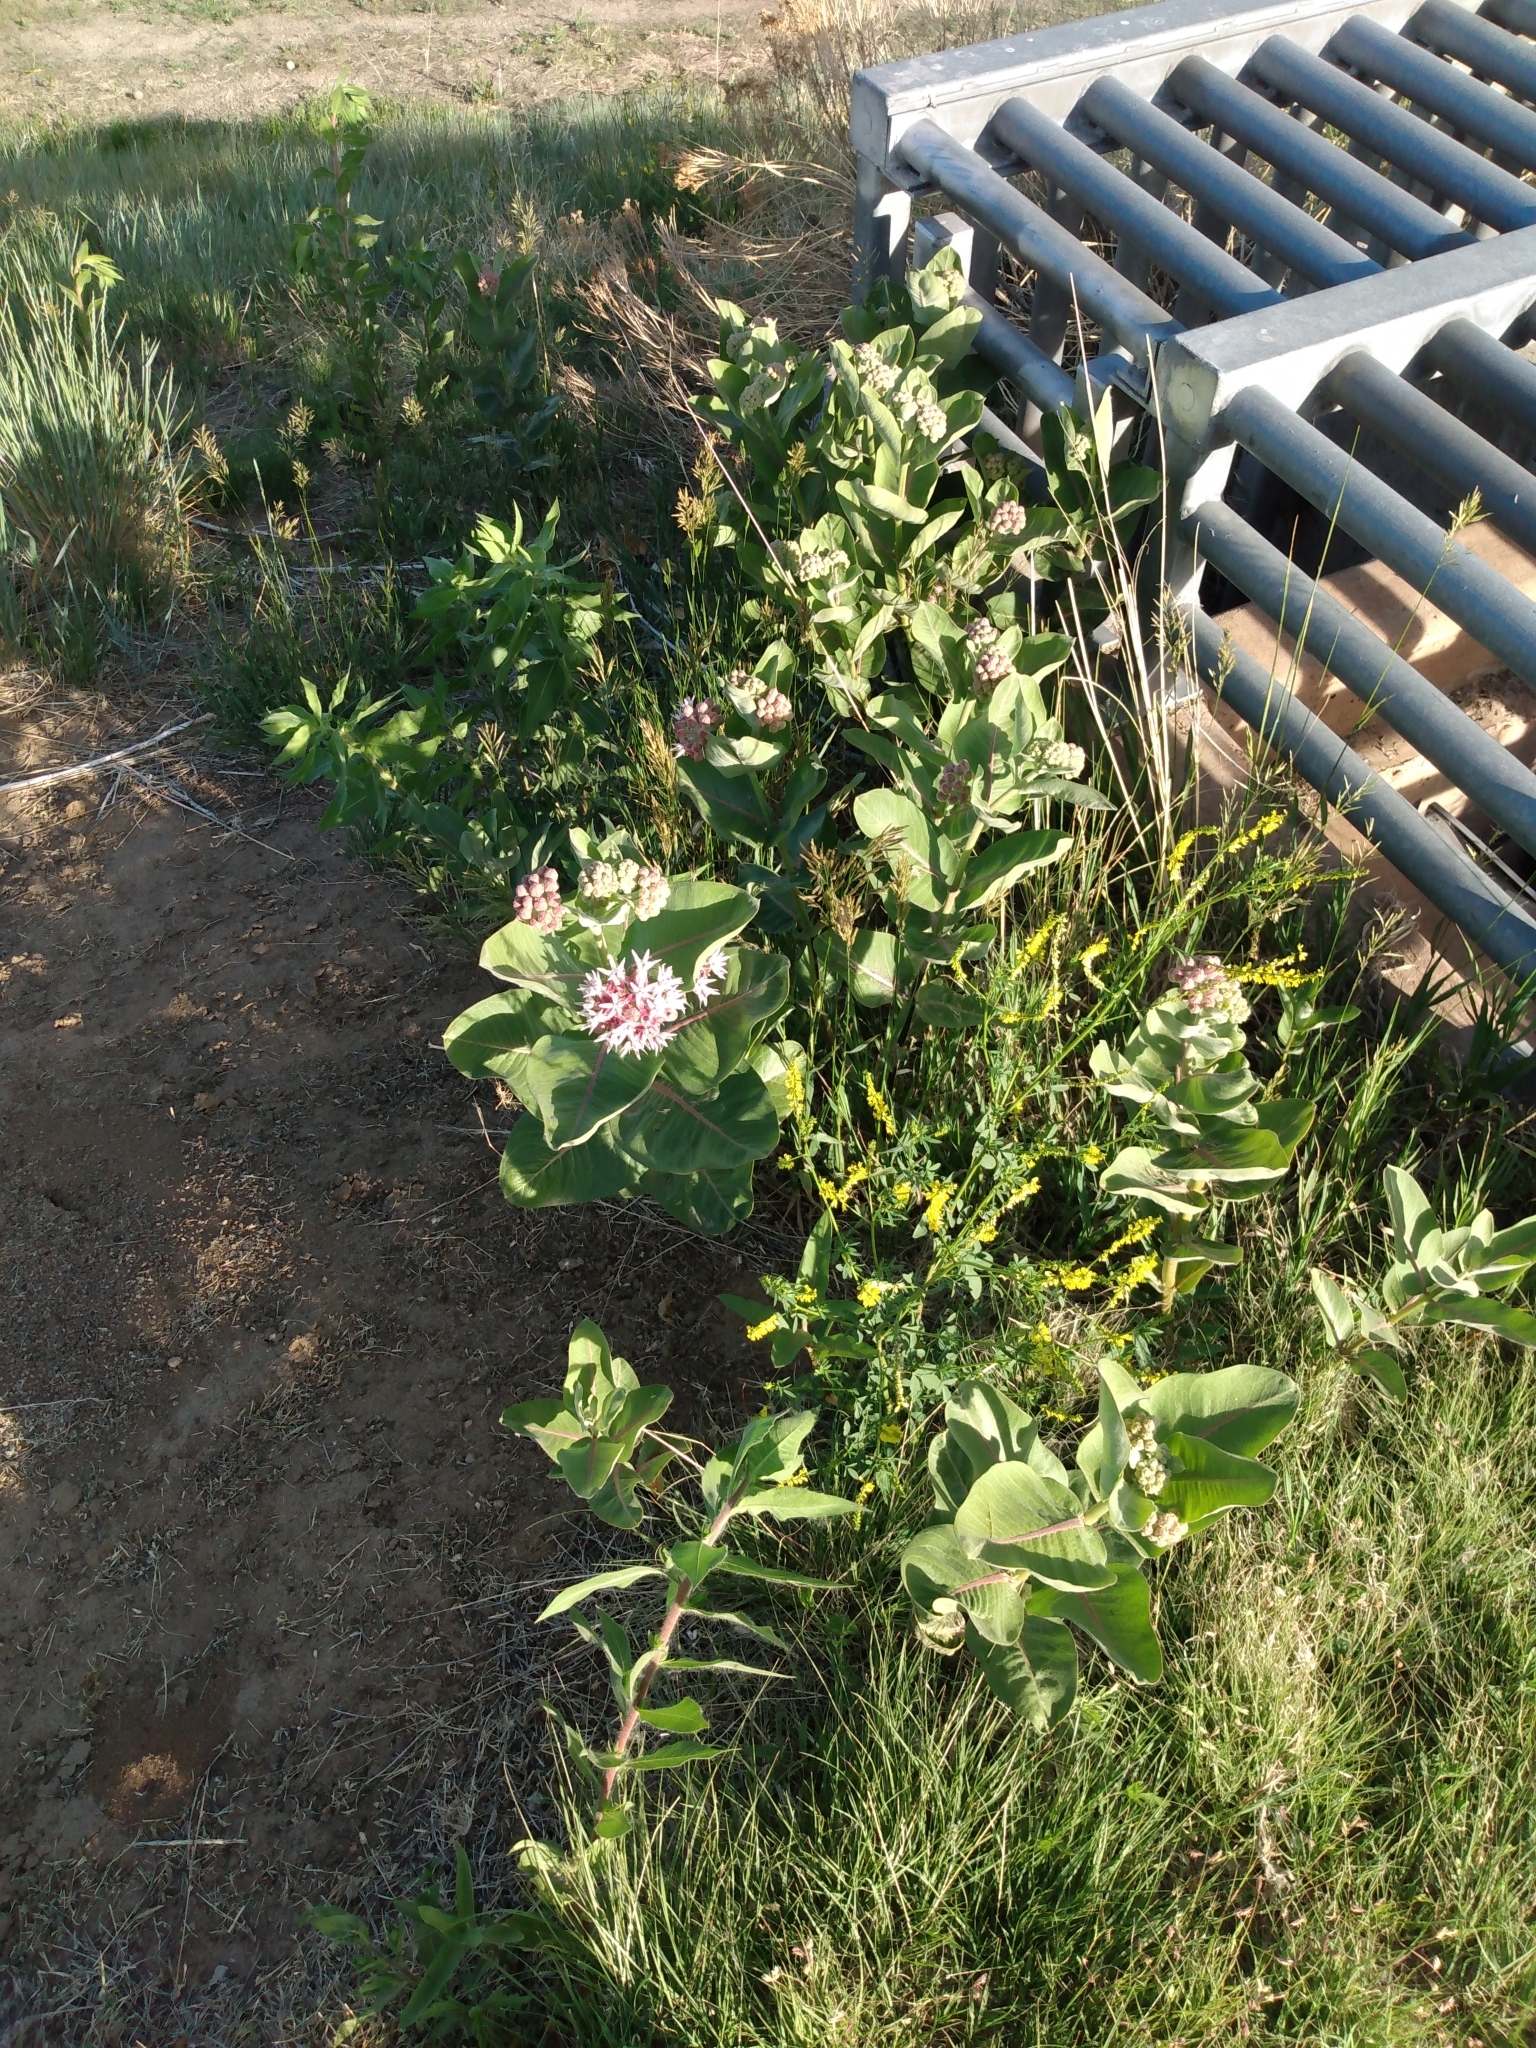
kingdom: Plantae
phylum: Tracheophyta
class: Magnoliopsida
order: Gentianales
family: Apocynaceae
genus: Asclepias
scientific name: Asclepias speciosa
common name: Showy milkweed
